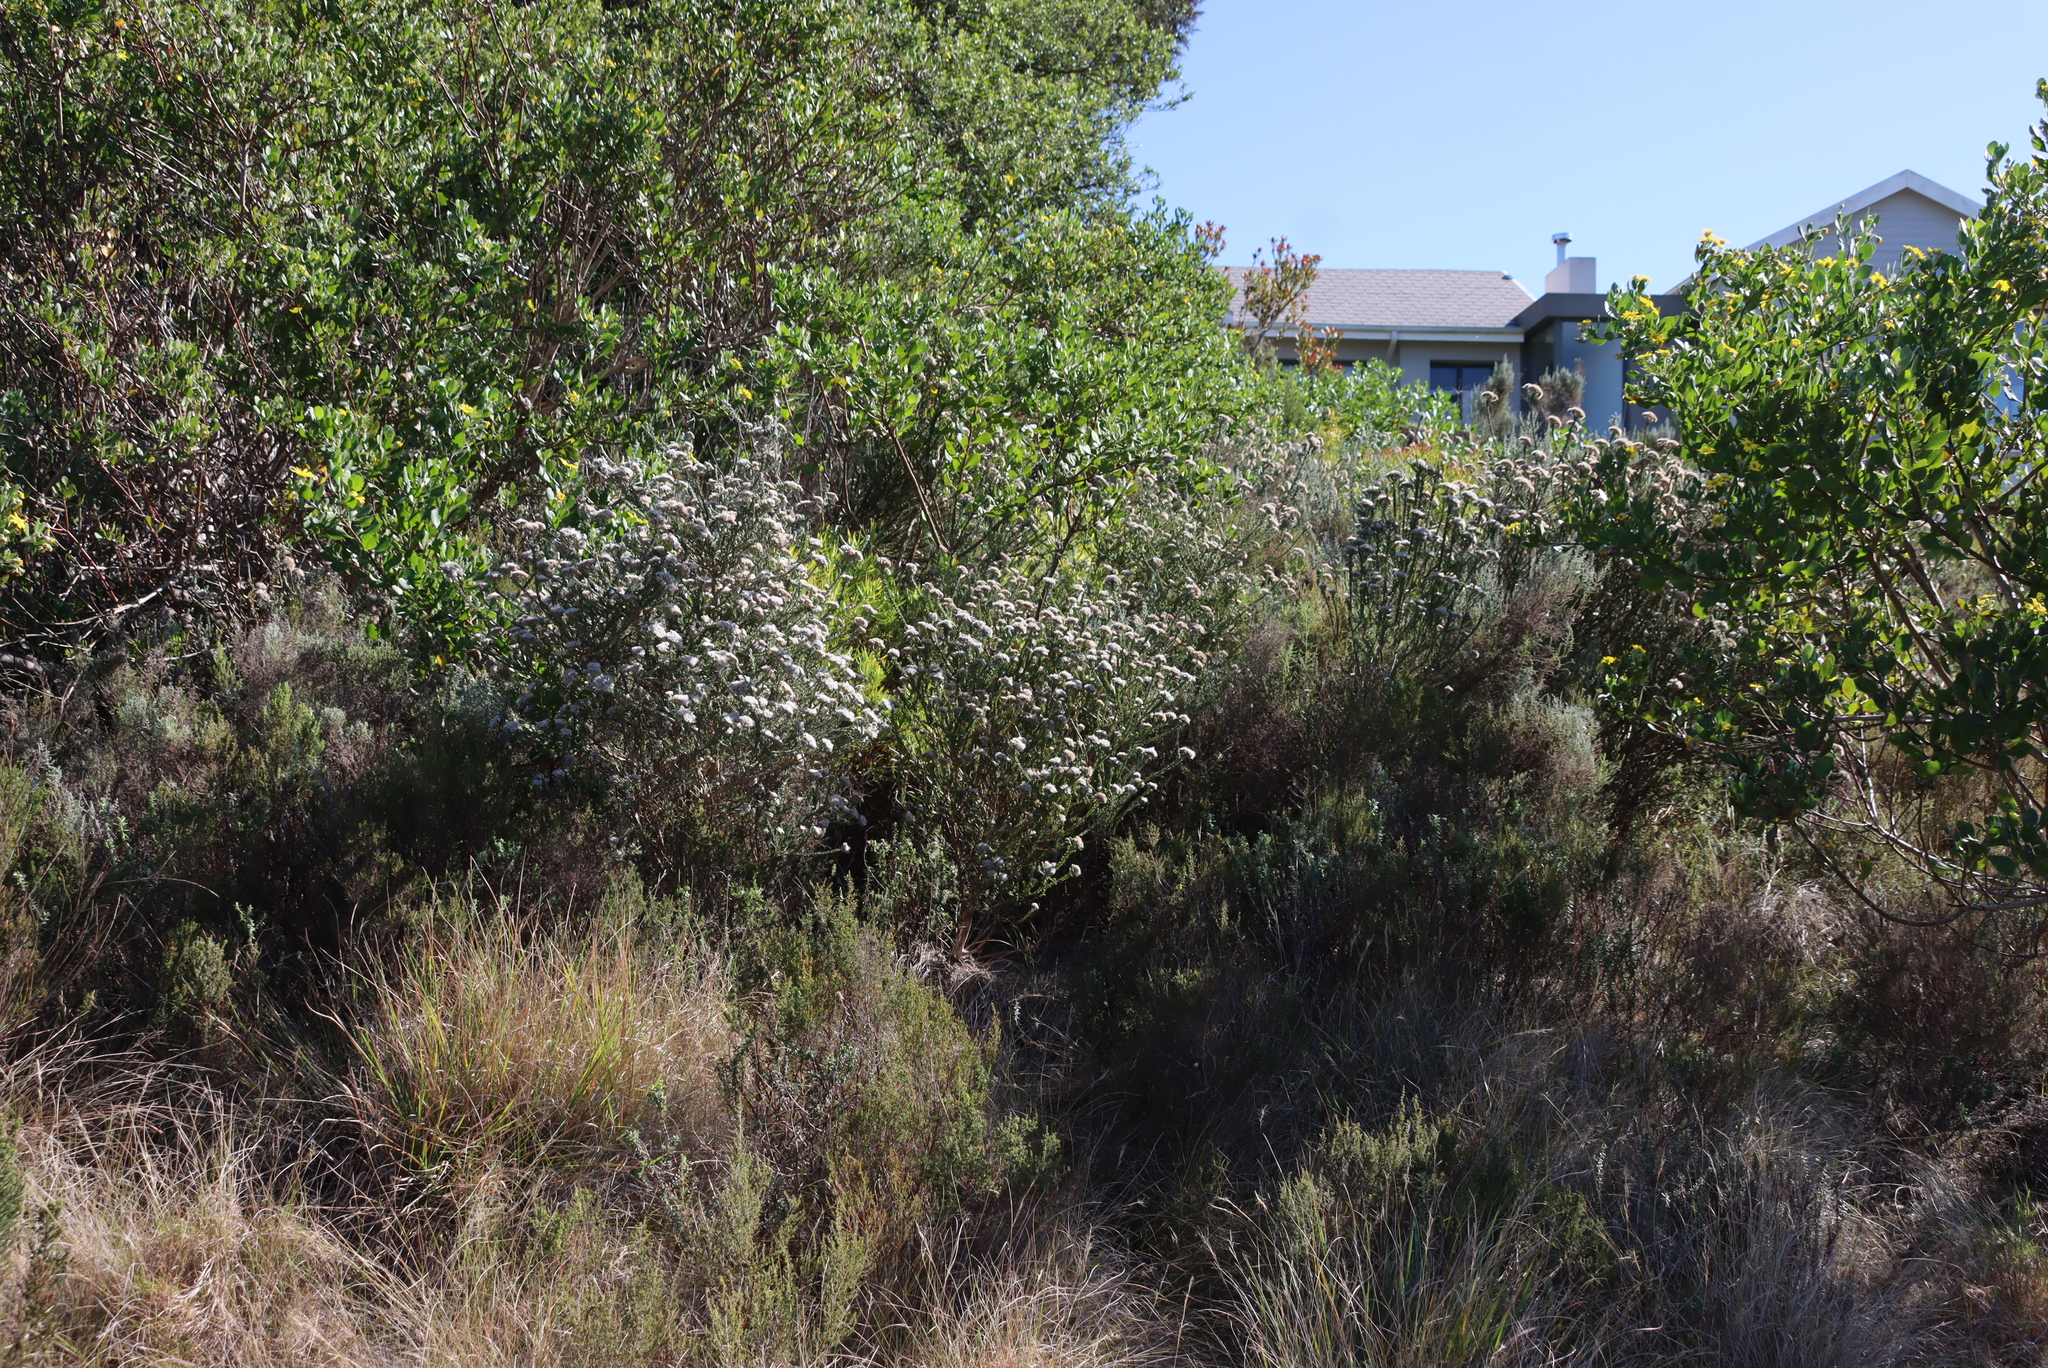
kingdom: Plantae
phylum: Tracheophyta
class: Magnoliopsida
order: Asterales
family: Asteraceae
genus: Metalasia
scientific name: Metalasia pungens
